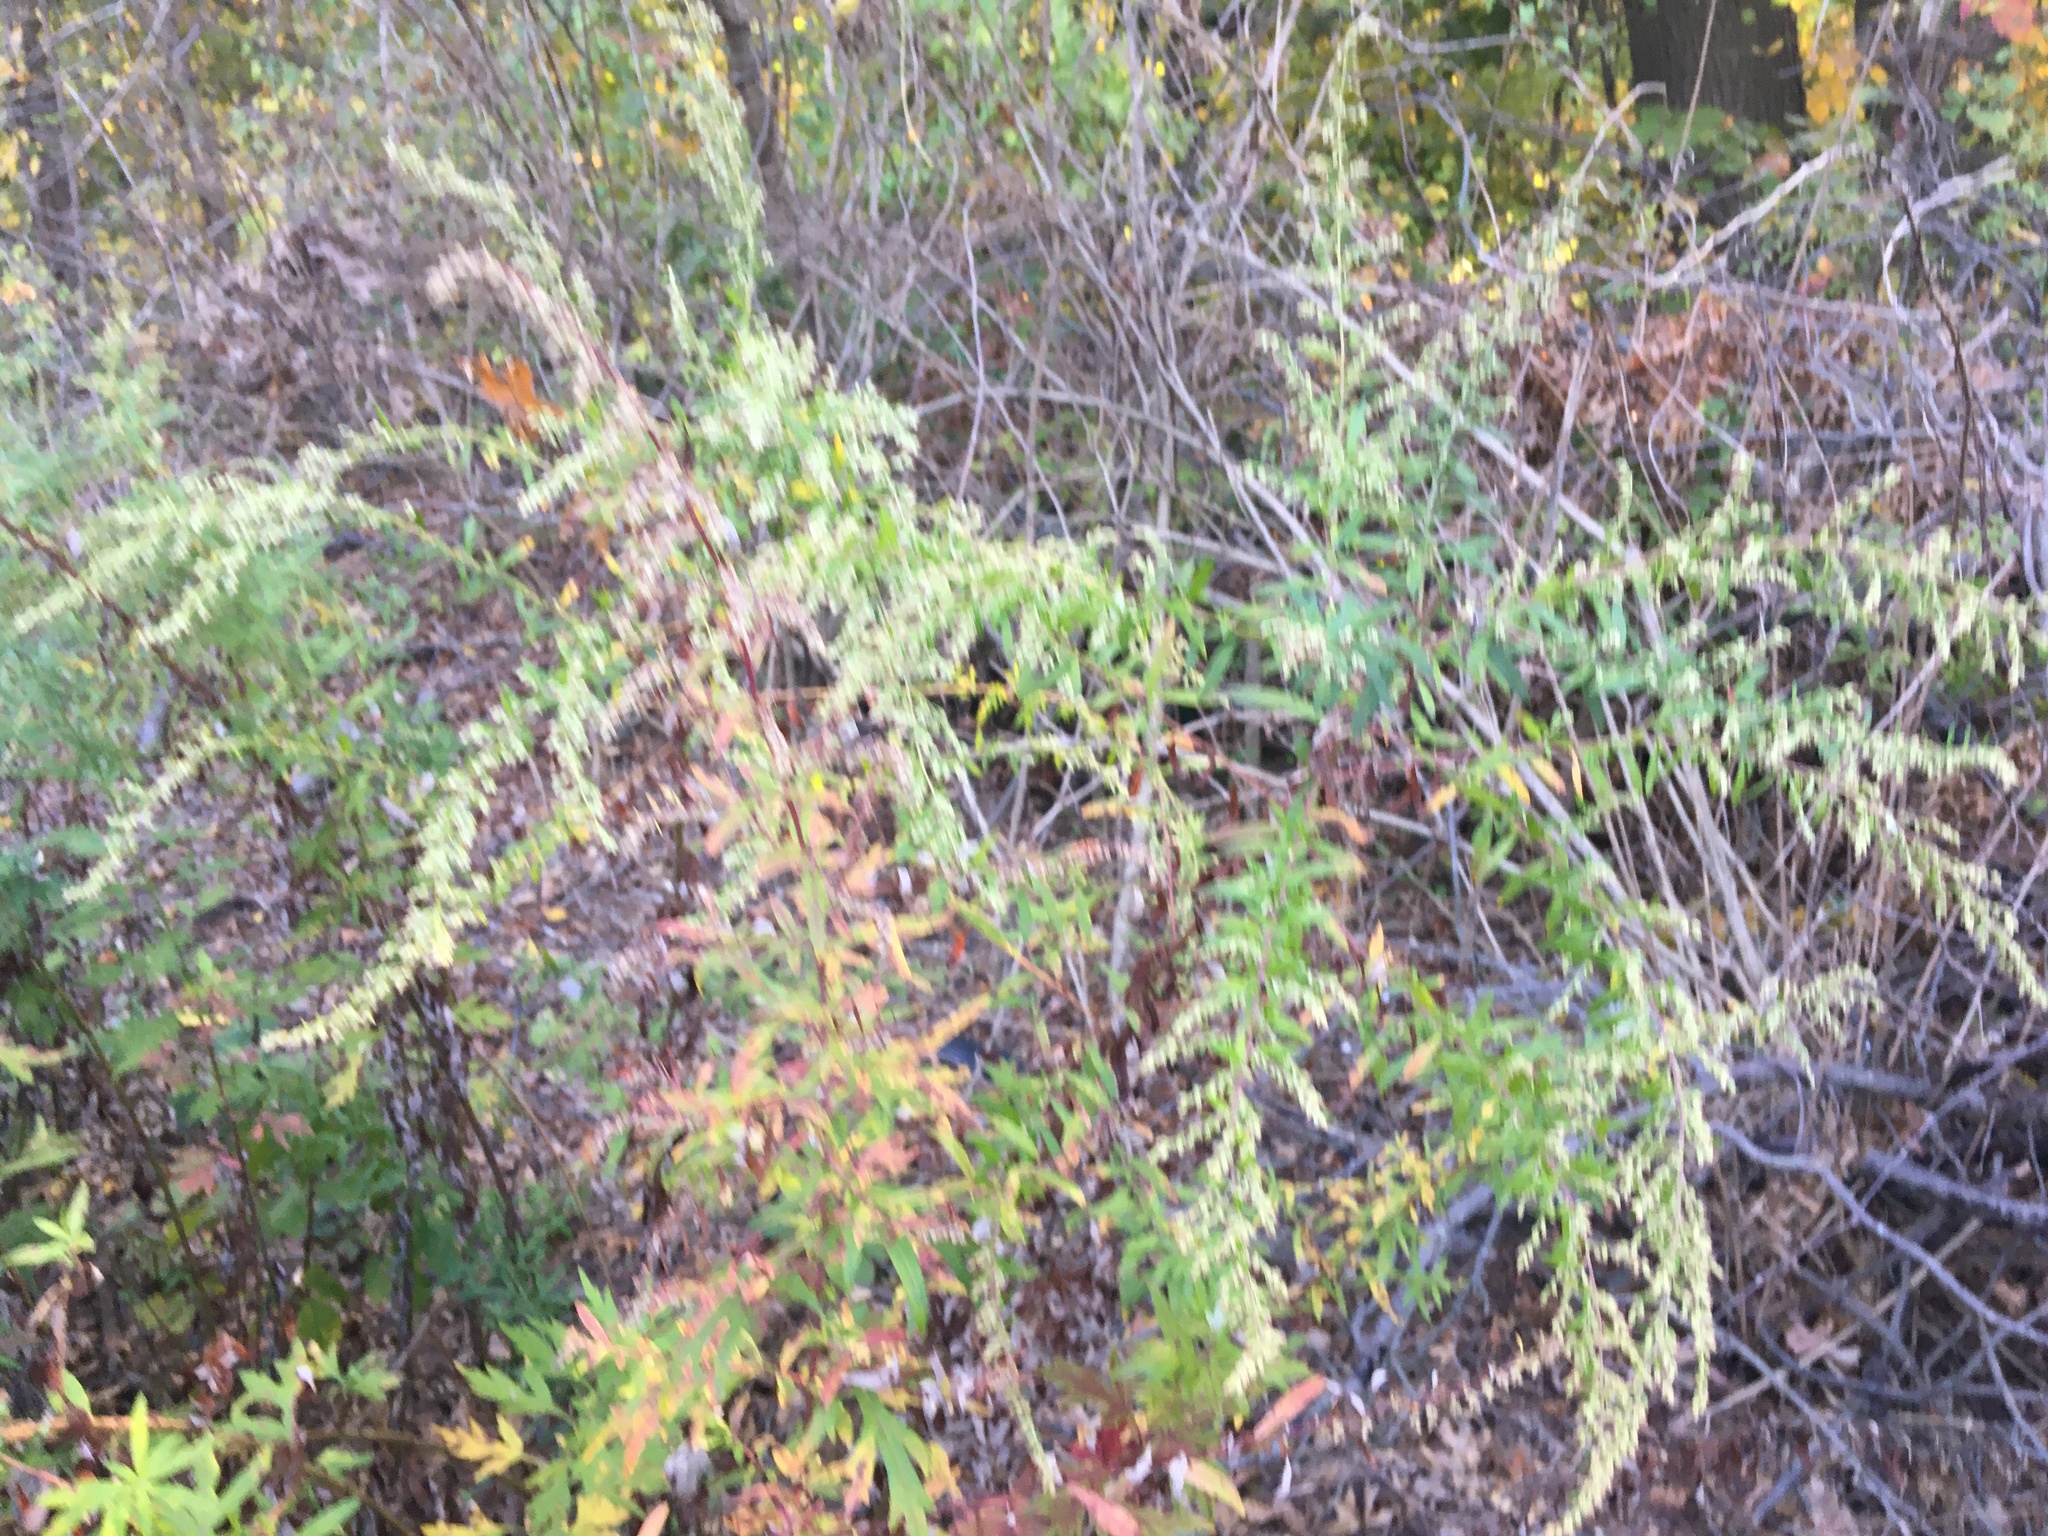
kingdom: Plantae
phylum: Tracheophyta
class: Magnoliopsida
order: Asterales
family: Asteraceae
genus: Artemisia
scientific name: Artemisia vulgaris
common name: Mugwort
